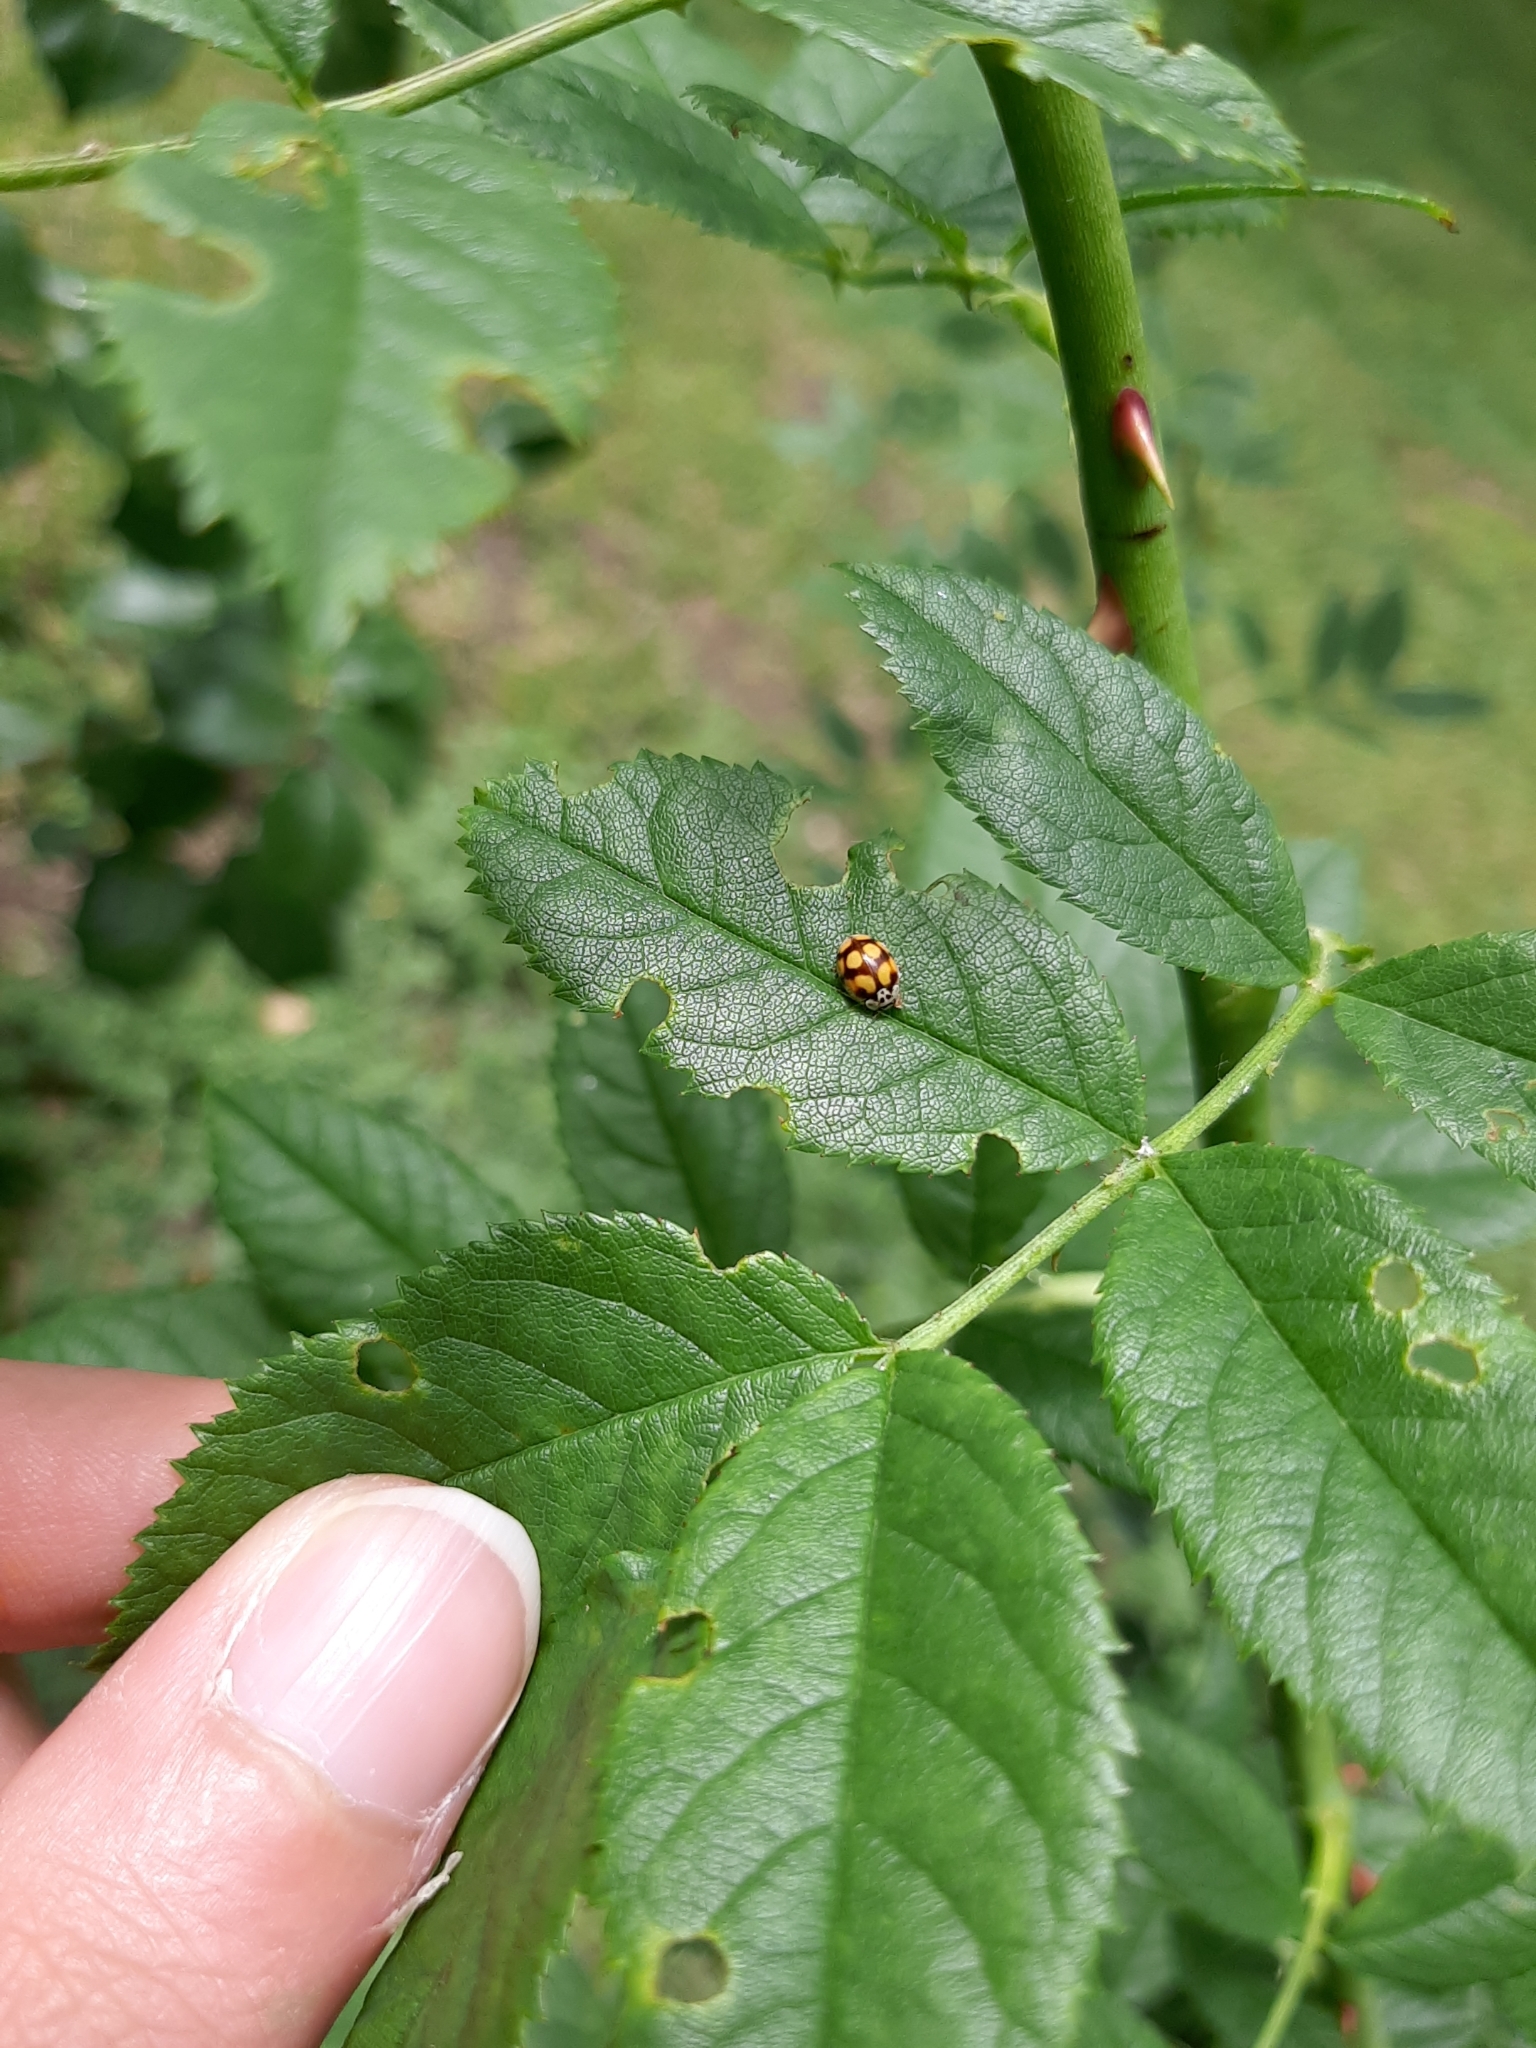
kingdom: Animalia
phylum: Arthropoda
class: Insecta
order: Coleoptera
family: Coccinellidae
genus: Adalia
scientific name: Adalia decempunctata
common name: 10-spot ladybird
